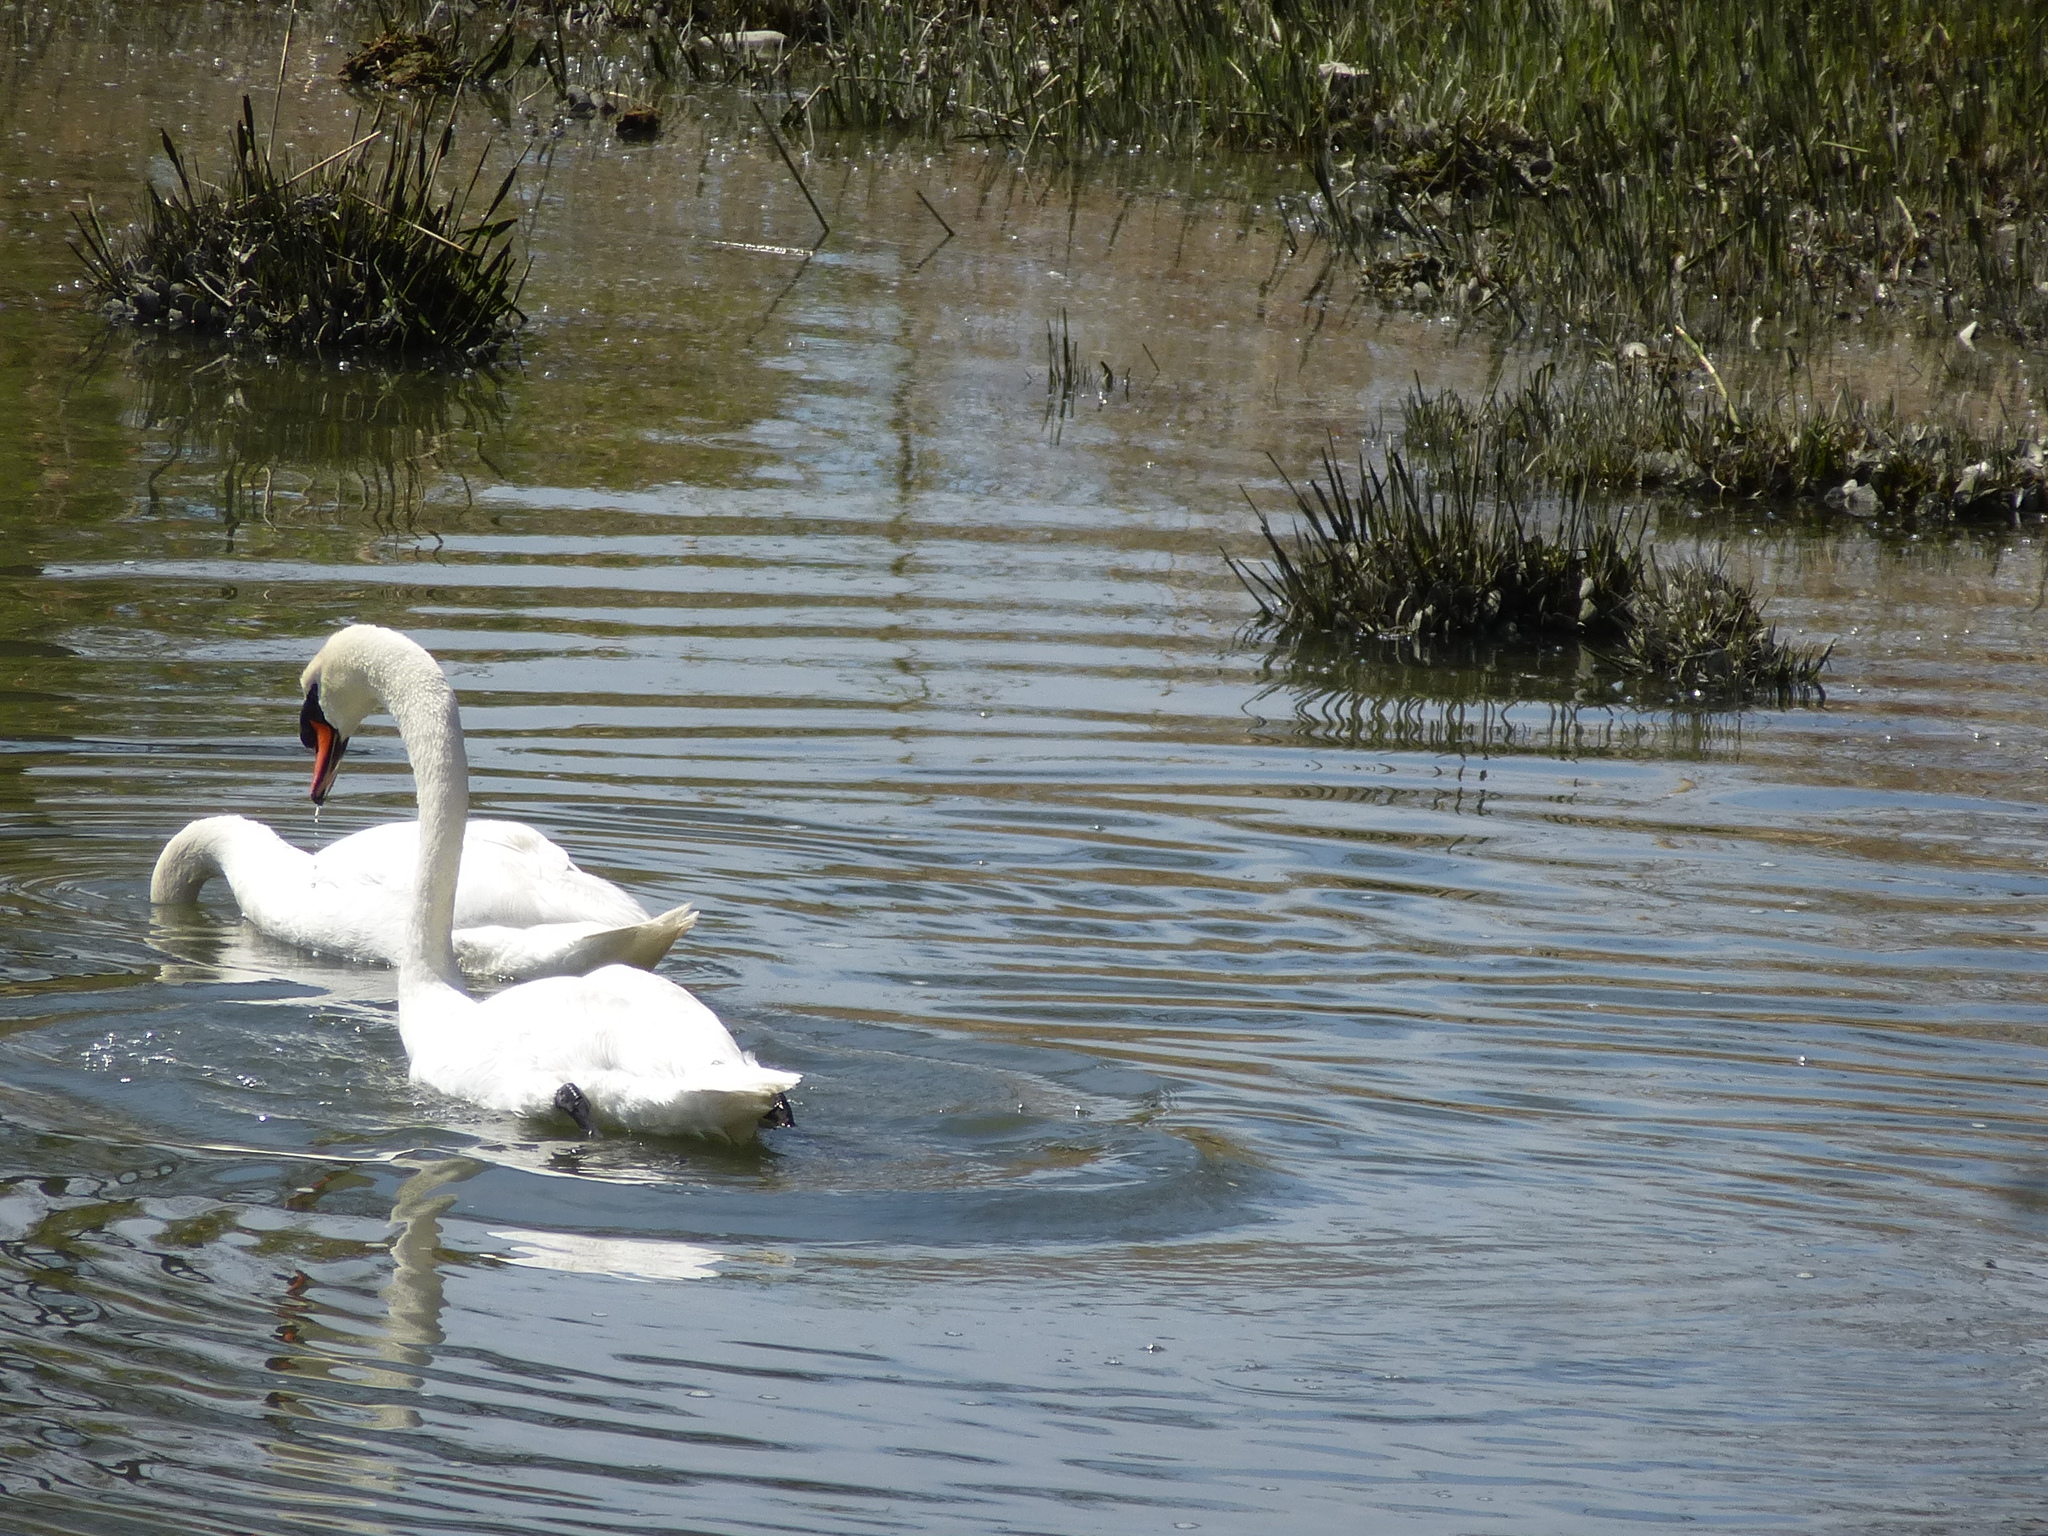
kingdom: Animalia
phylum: Chordata
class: Aves
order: Anseriformes
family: Anatidae
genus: Cygnus
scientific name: Cygnus olor
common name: Mute swan
